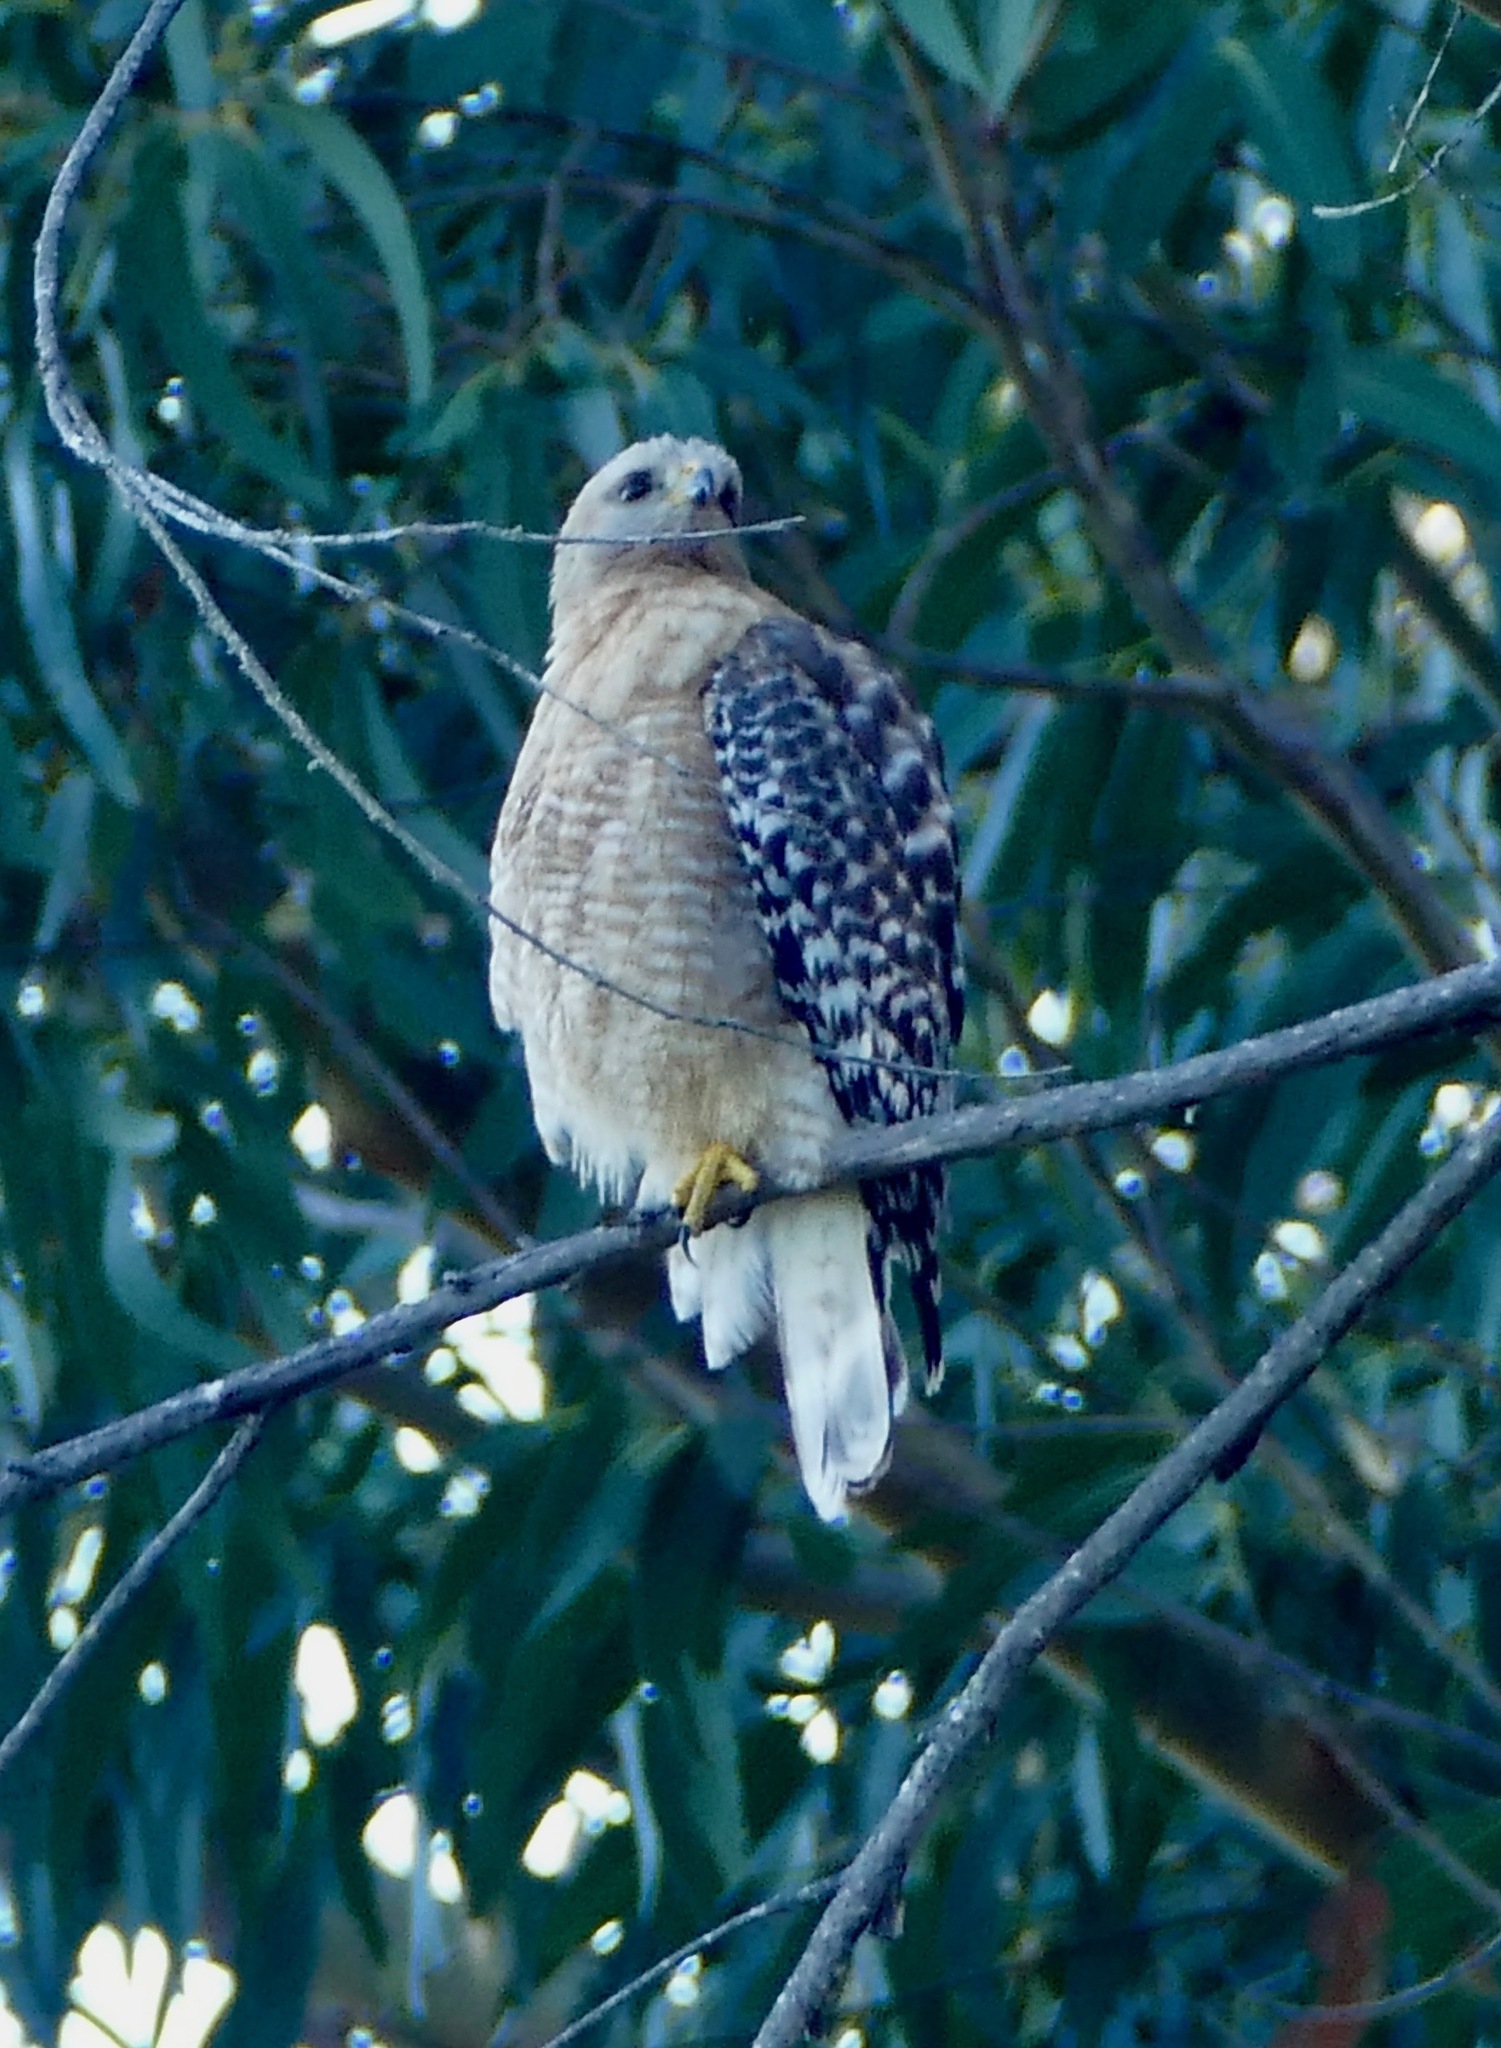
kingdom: Animalia
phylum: Chordata
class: Aves
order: Accipitriformes
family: Accipitridae
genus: Buteo
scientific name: Buteo lineatus
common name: Red-shouldered hawk
